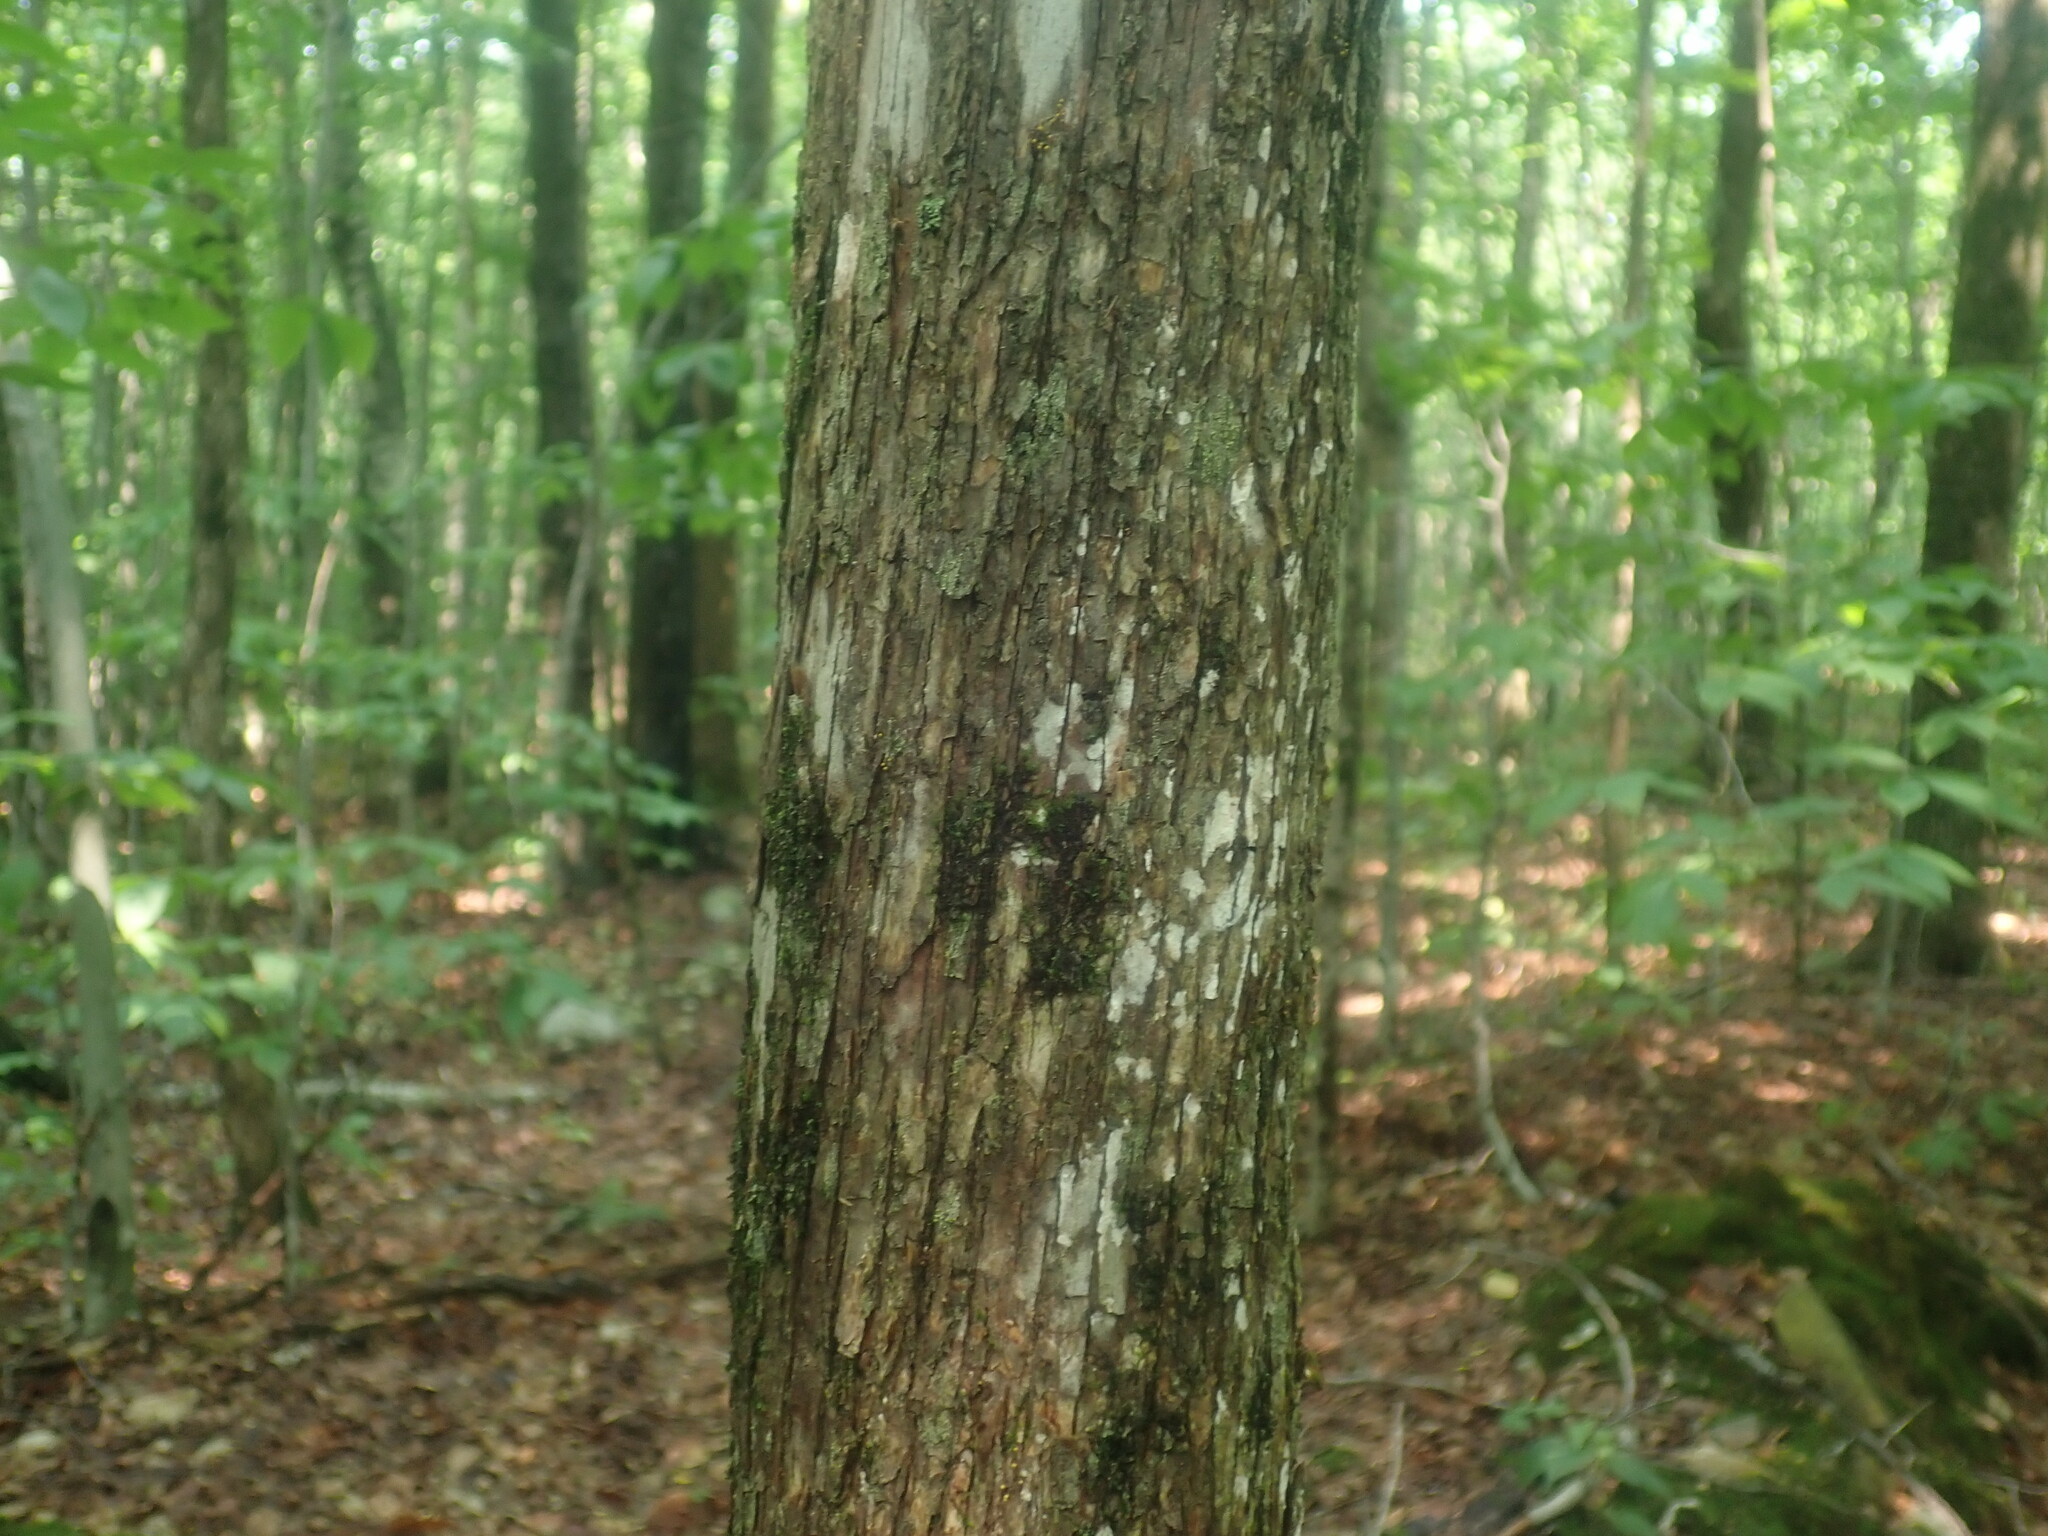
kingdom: Plantae
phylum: Tracheophyta
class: Magnoliopsida
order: Fagales
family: Betulaceae
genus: Ostrya
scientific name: Ostrya virginiana
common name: Ironwood
